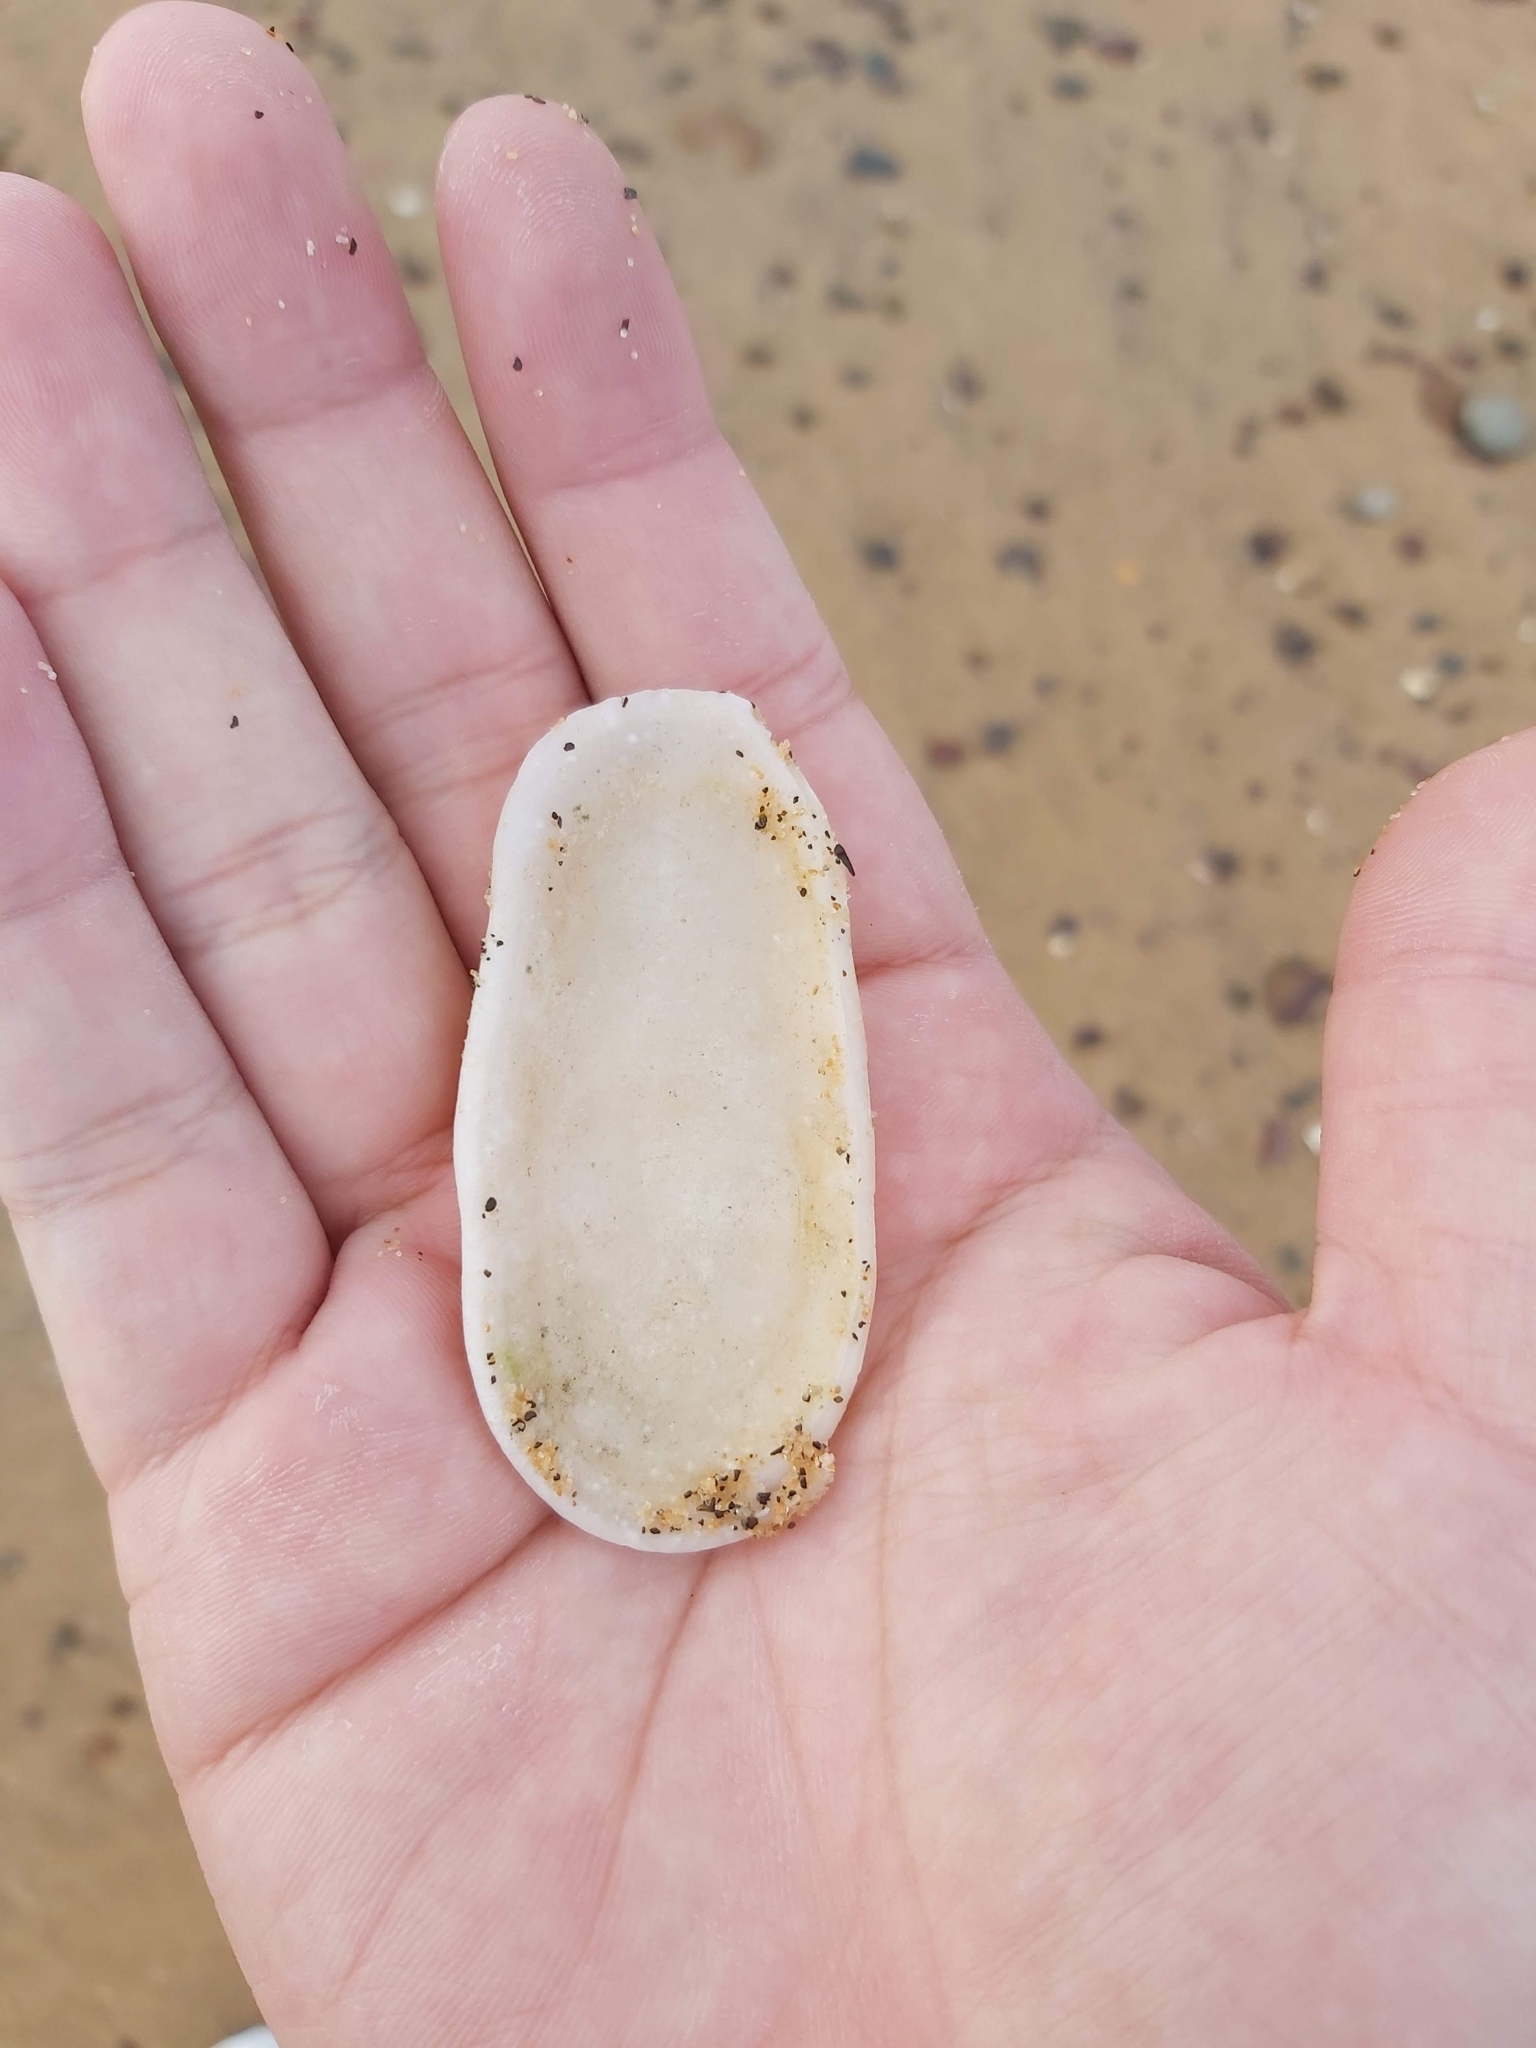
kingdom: Animalia
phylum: Mollusca
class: Gastropoda
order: Lepetellida
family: Fissurellidae
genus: Scutus
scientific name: Scutus antipodes
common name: Duckbill shell
